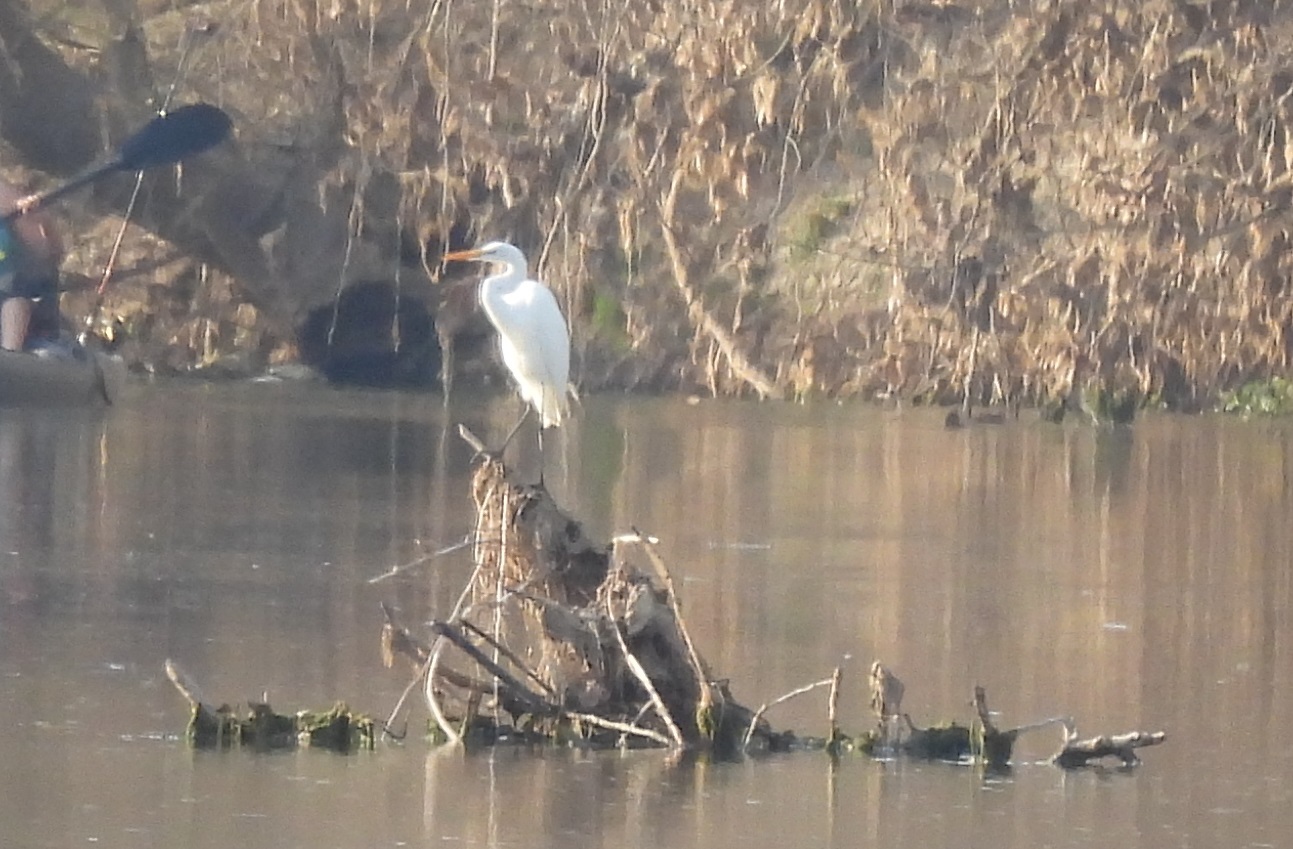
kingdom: Animalia
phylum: Chordata
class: Aves
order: Pelecaniformes
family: Ardeidae
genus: Ardea
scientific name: Ardea alba
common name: Great egret
